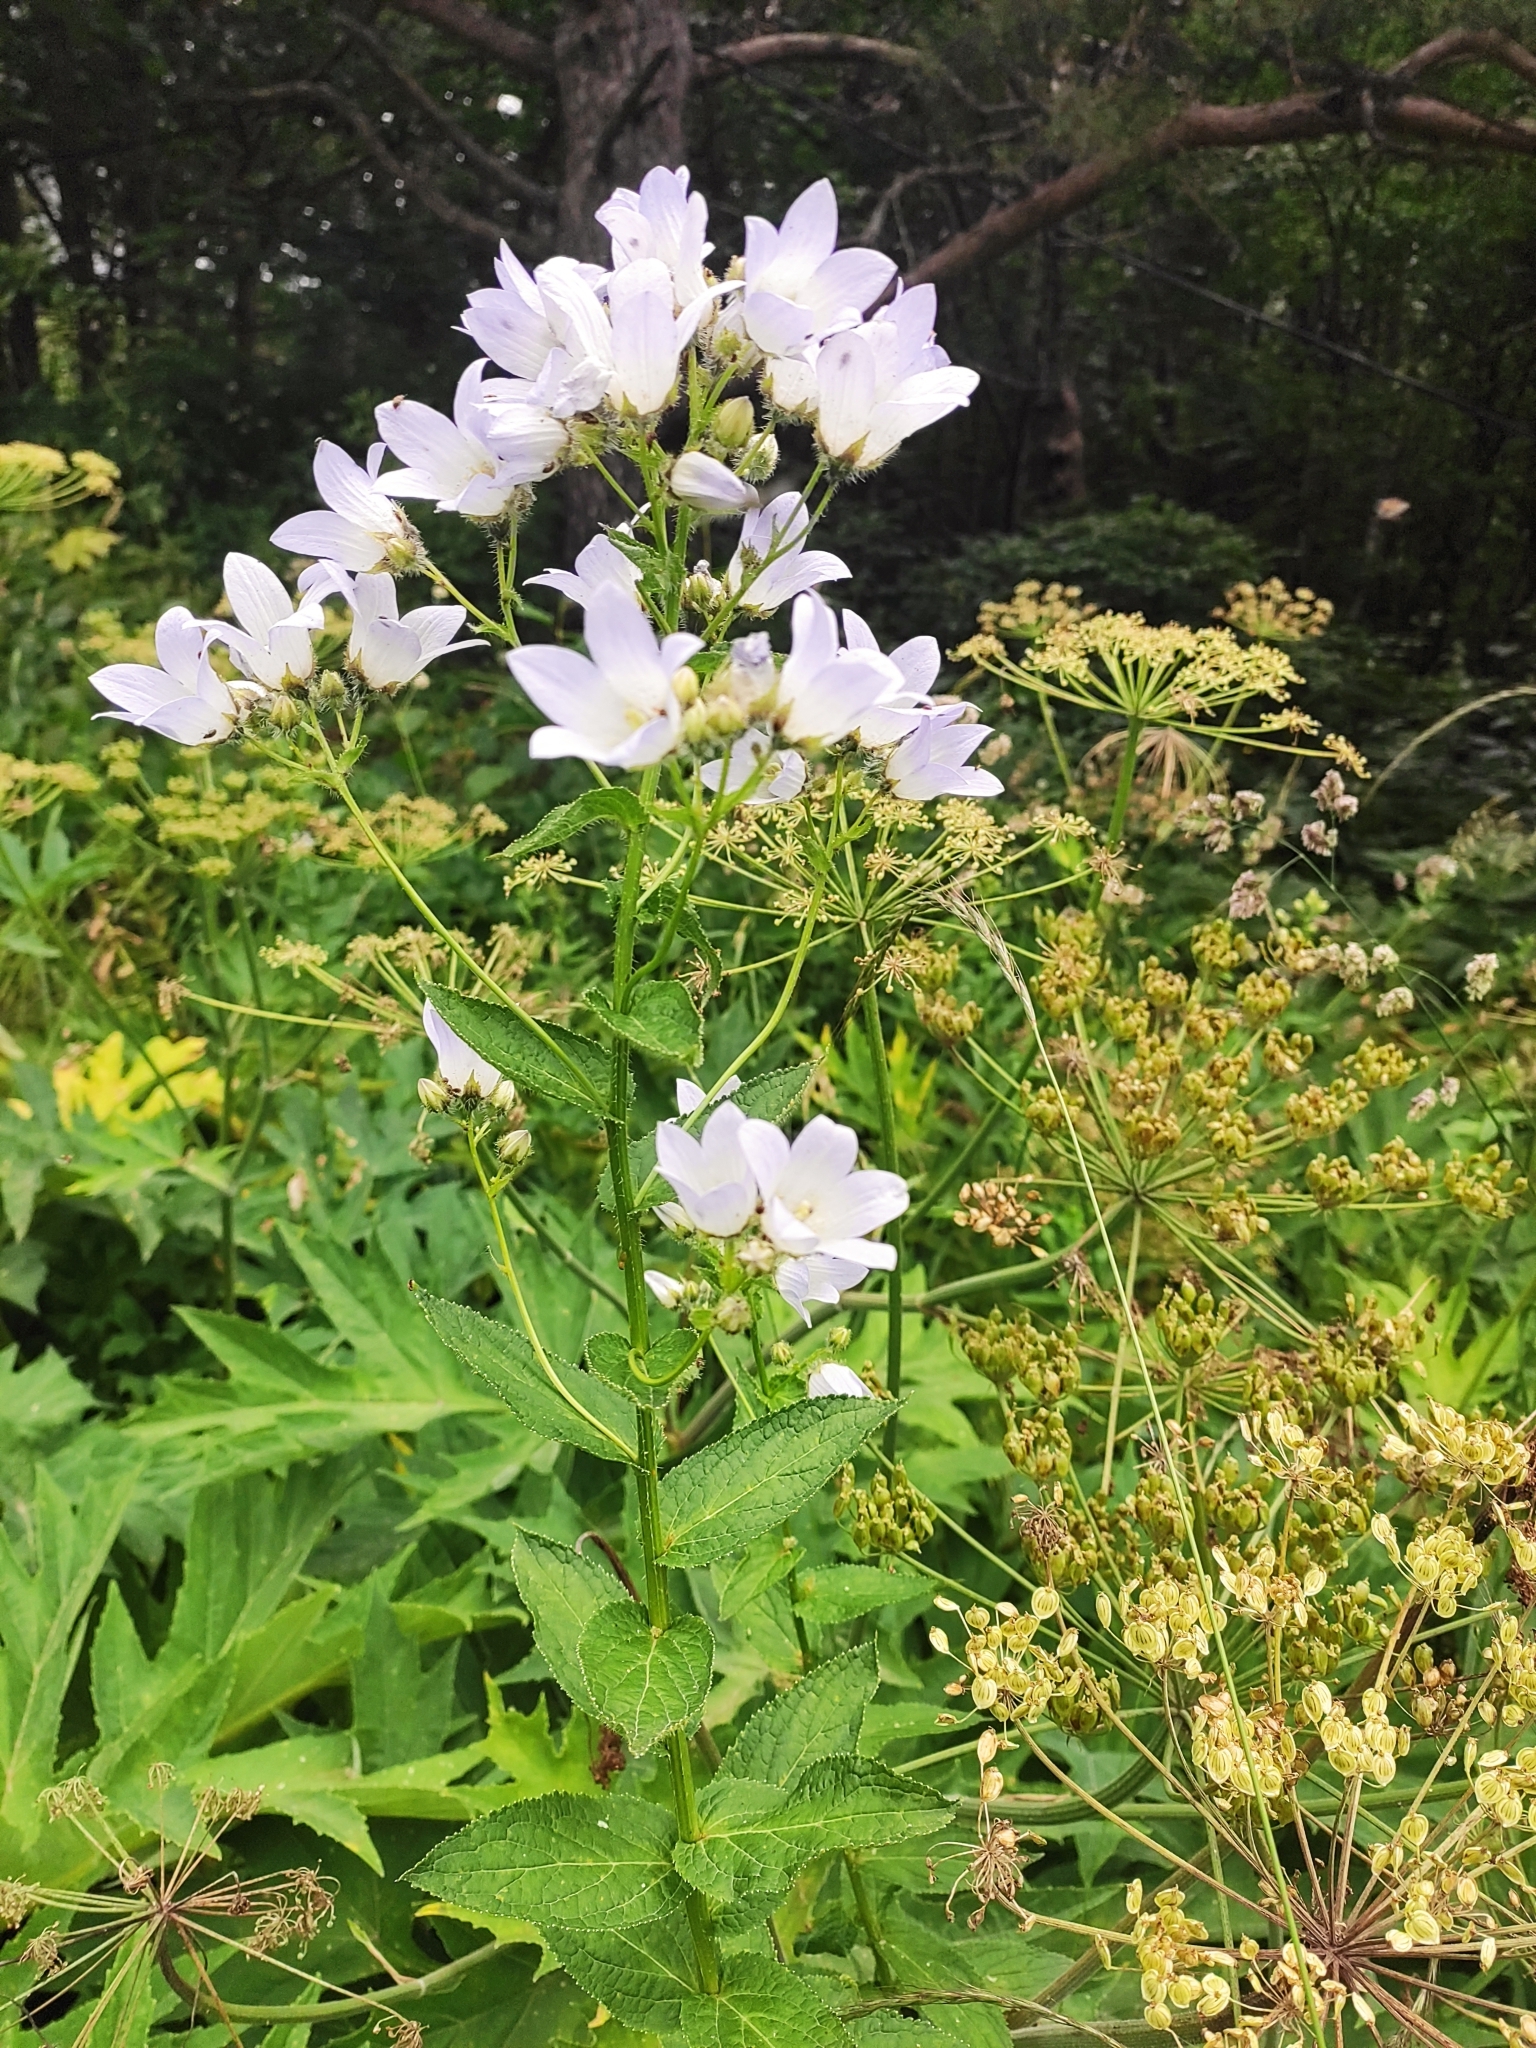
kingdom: Plantae
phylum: Tracheophyta
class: Magnoliopsida
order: Asterales
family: Campanulaceae
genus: Campanula
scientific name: Campanula lactiflora
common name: Milky bellflower
